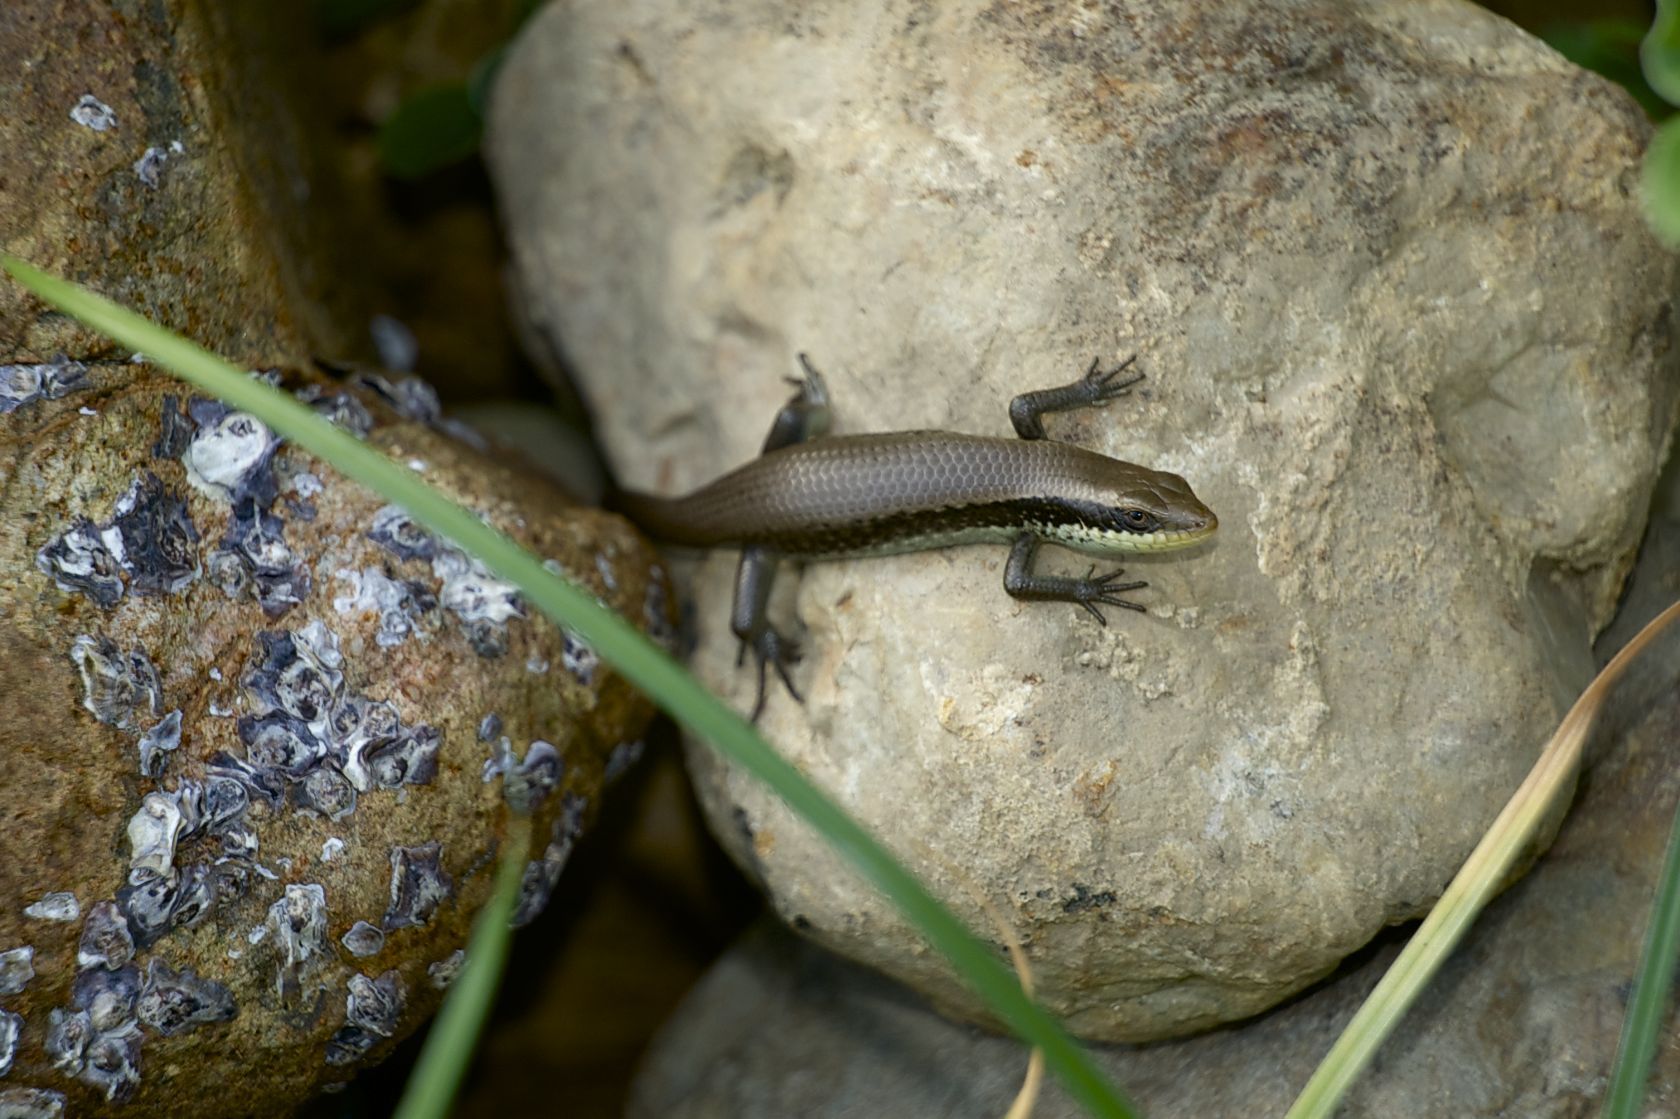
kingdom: Animalia
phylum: Chordata
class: Squamata
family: Scincidae
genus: Eutropis
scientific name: Eutropis longicaudata
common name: Long-tailed sun skink
